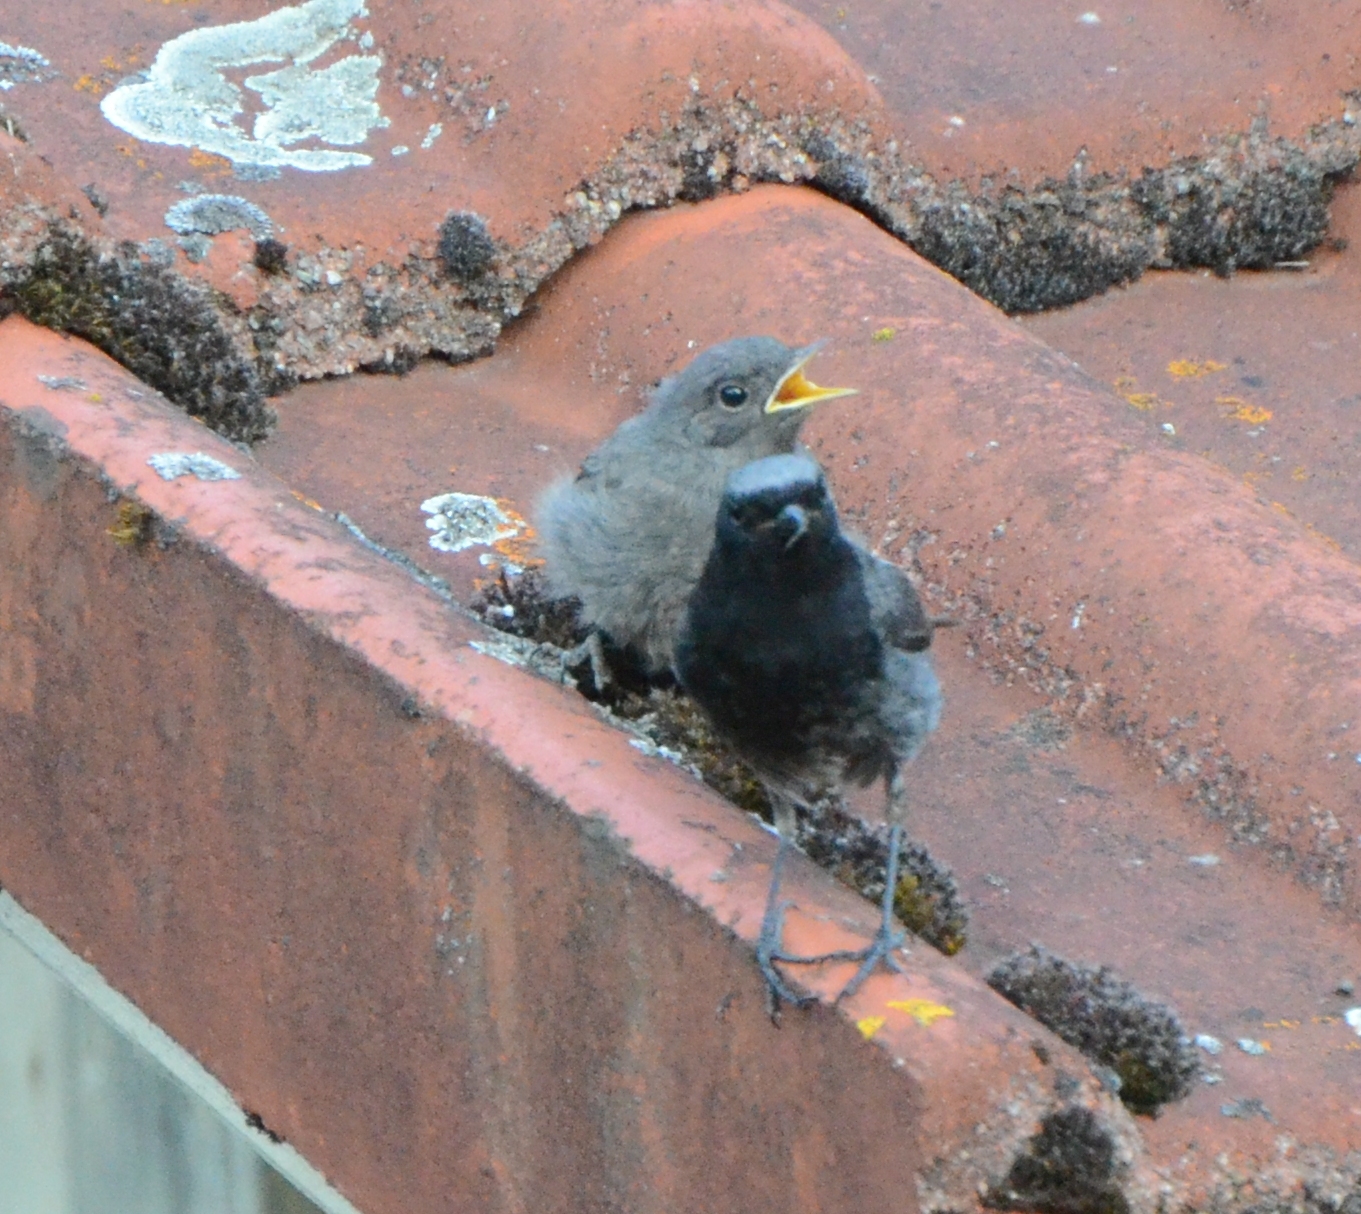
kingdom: Animalia
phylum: Chordata
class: Aves
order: Passeriformes
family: Muscicapidae
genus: Phoenicurus
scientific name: Phoenicurus ochruros
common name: Black redstart
